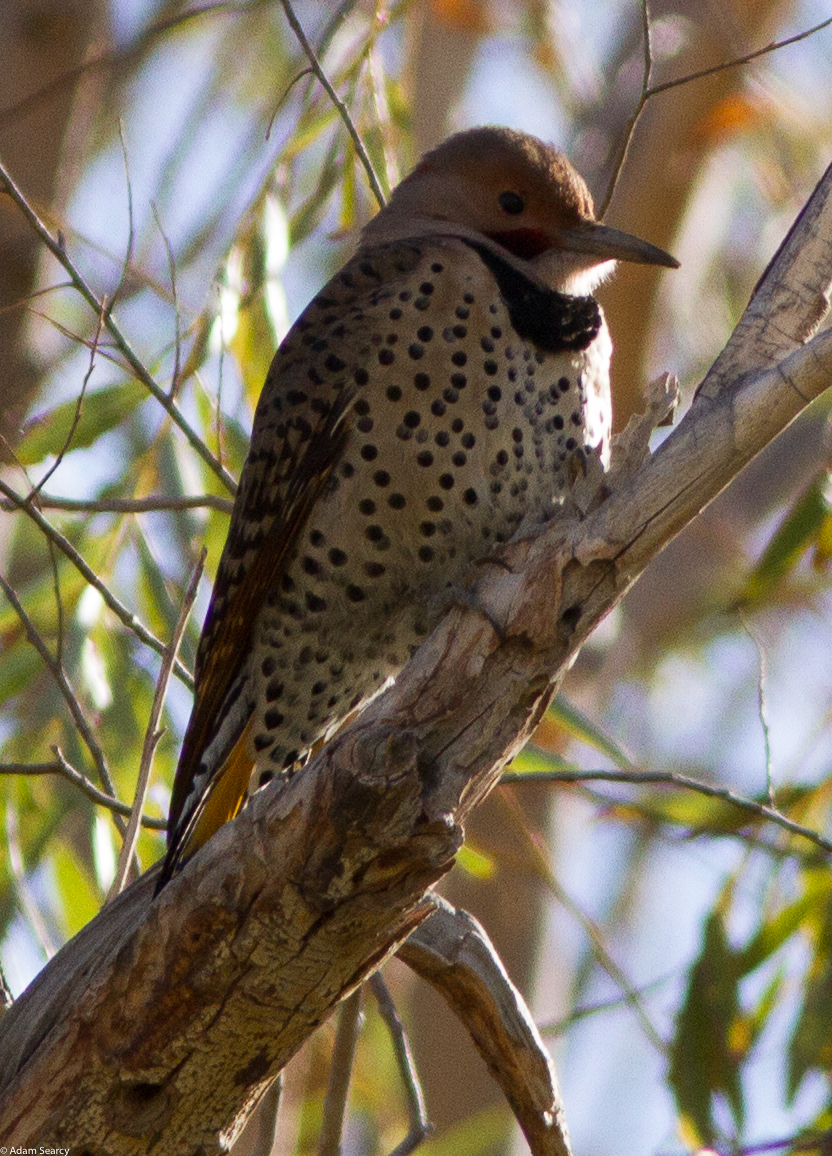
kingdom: Animalia
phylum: Chordata
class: Aves
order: Piciformes
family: Picidae
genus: Colaptes
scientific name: Colaptes
